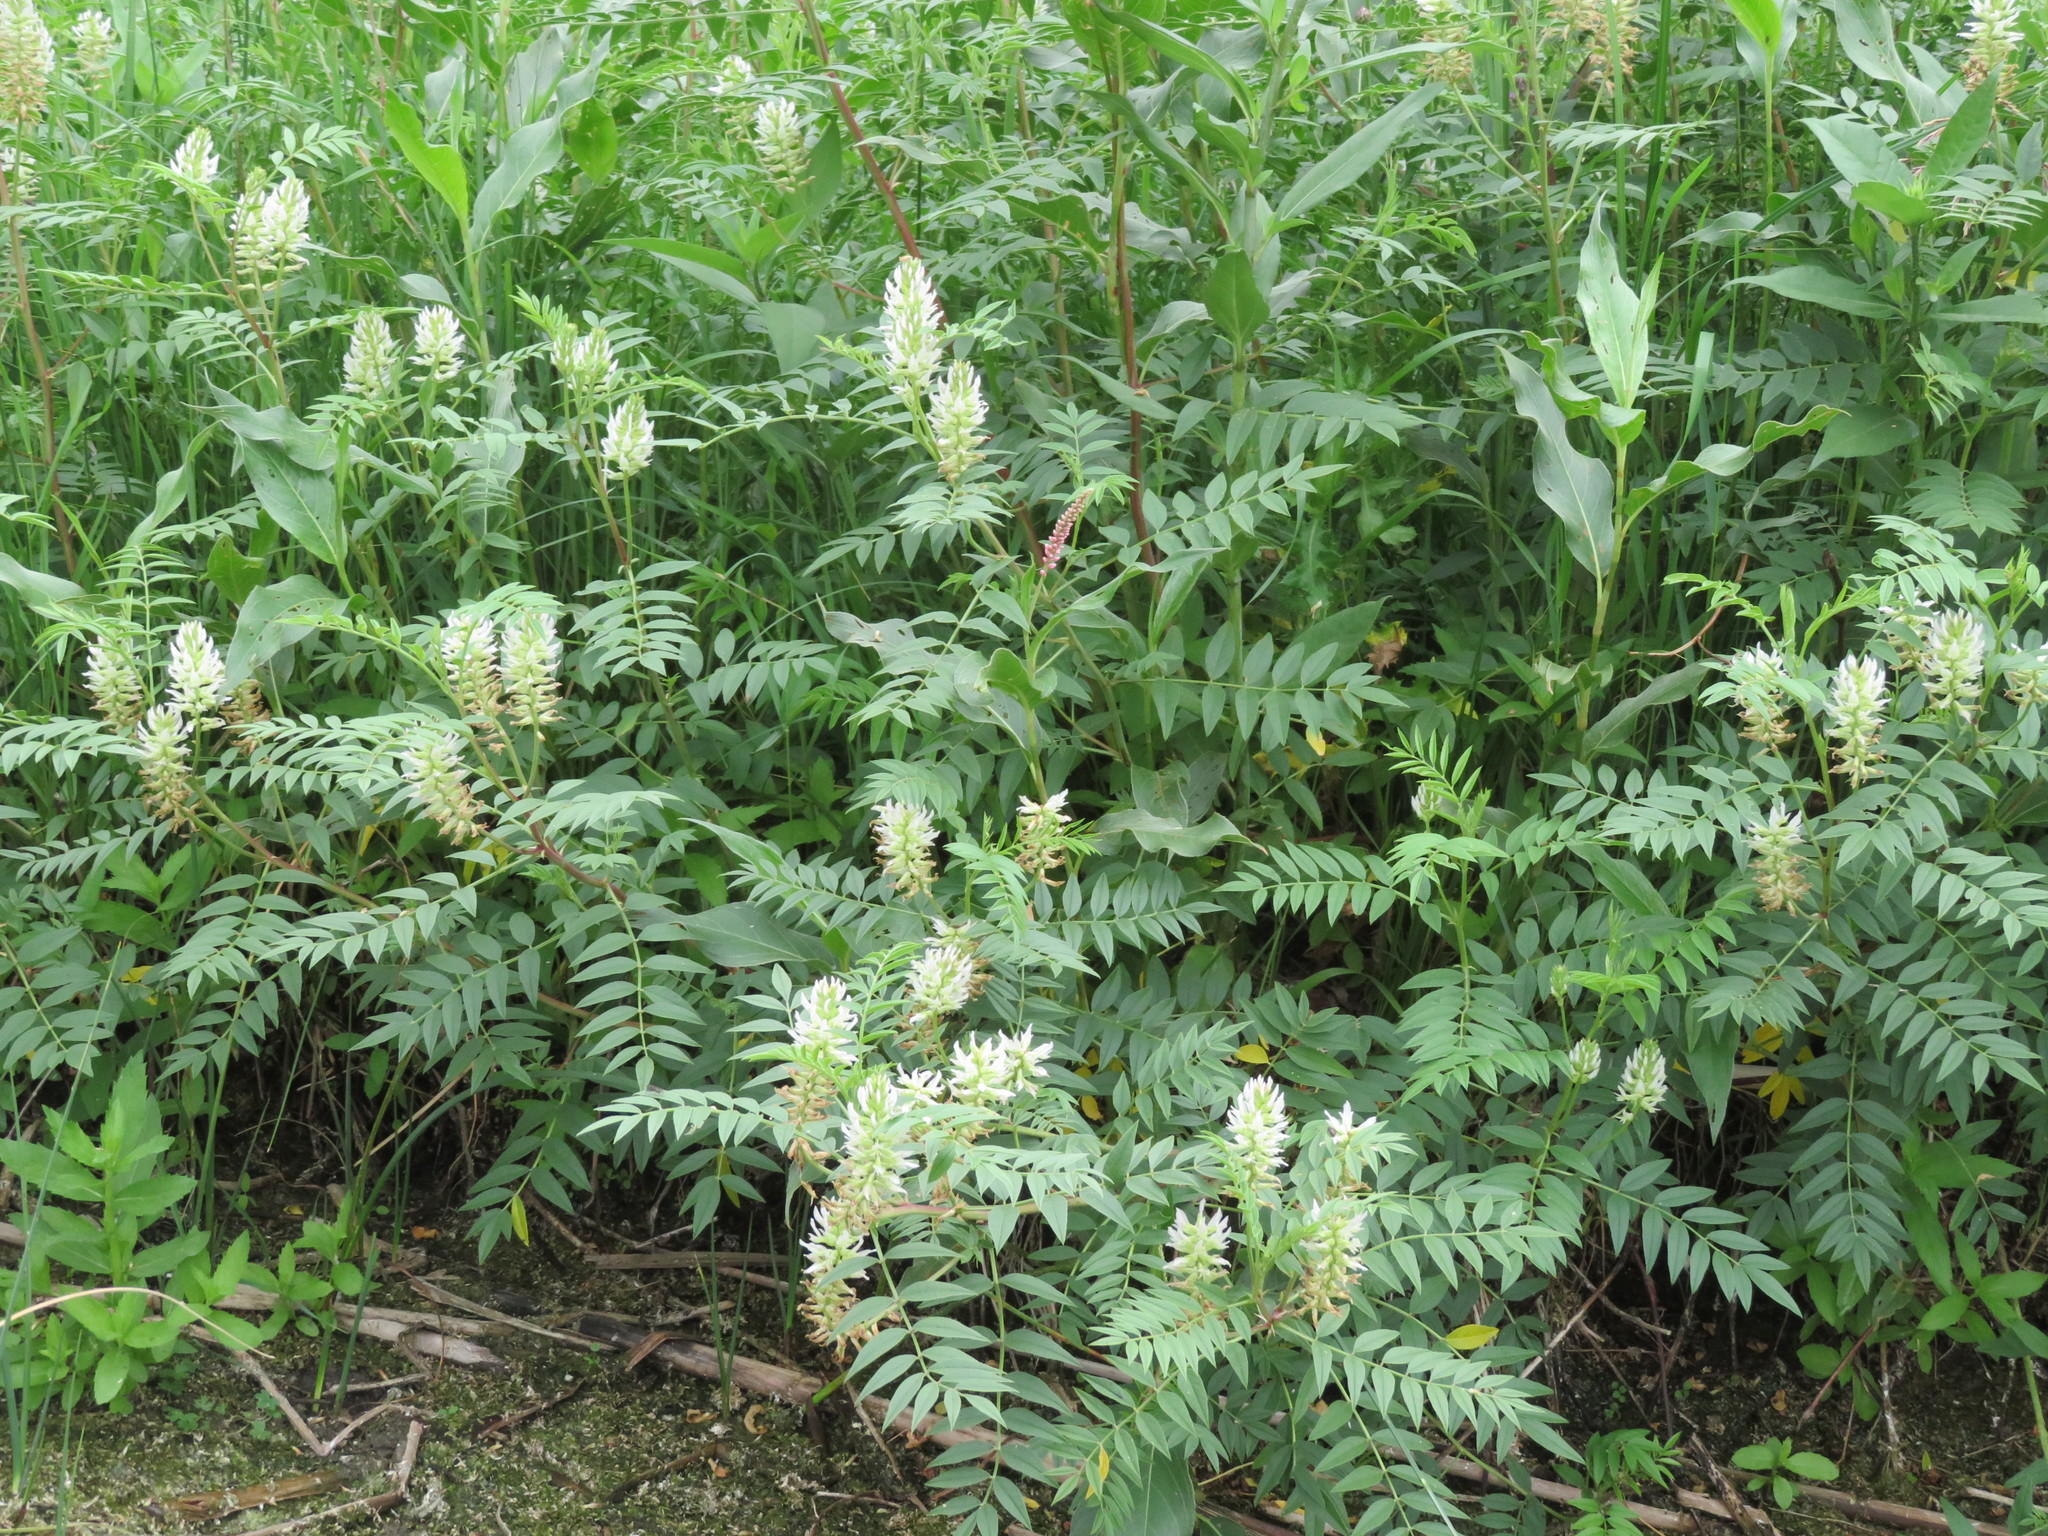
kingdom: Plantae
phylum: Tracheophyta
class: Magnoliopsida
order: Fabales
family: Fabaceae
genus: Glycyrrhiza
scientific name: Glycyrrhiza lepidota
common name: American liquorice
